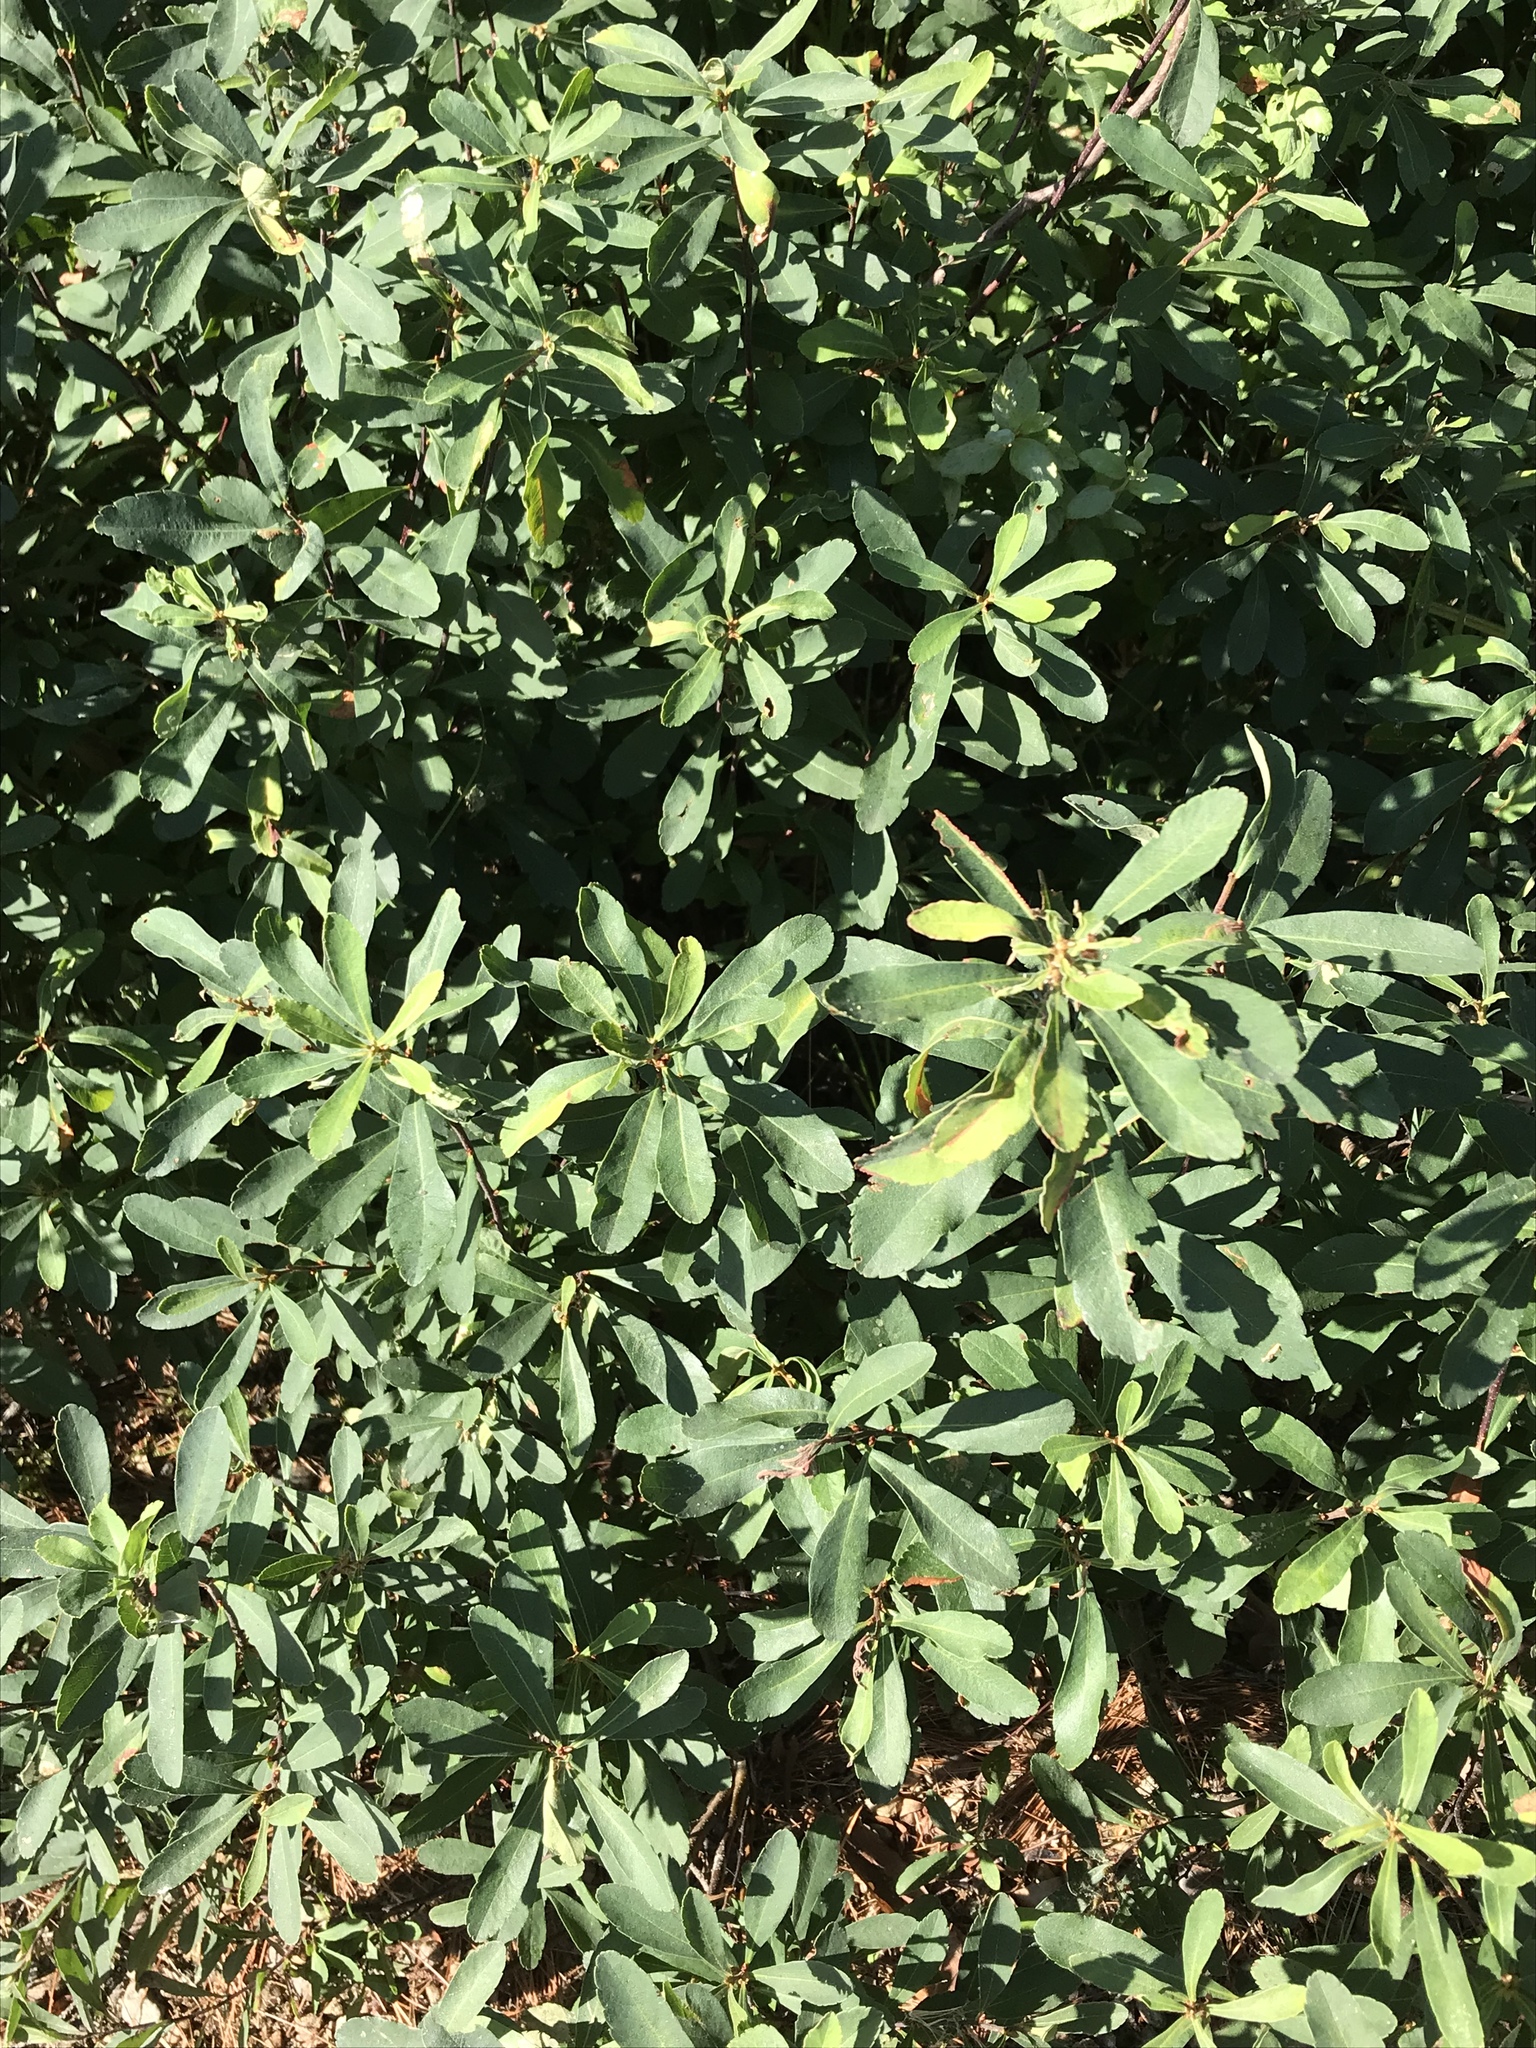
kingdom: Plantae
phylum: Tracheophyta
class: Magnoliopsida
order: Fagales
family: Myricaceae
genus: Myrica
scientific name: Myrica gale
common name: Sweet gale
